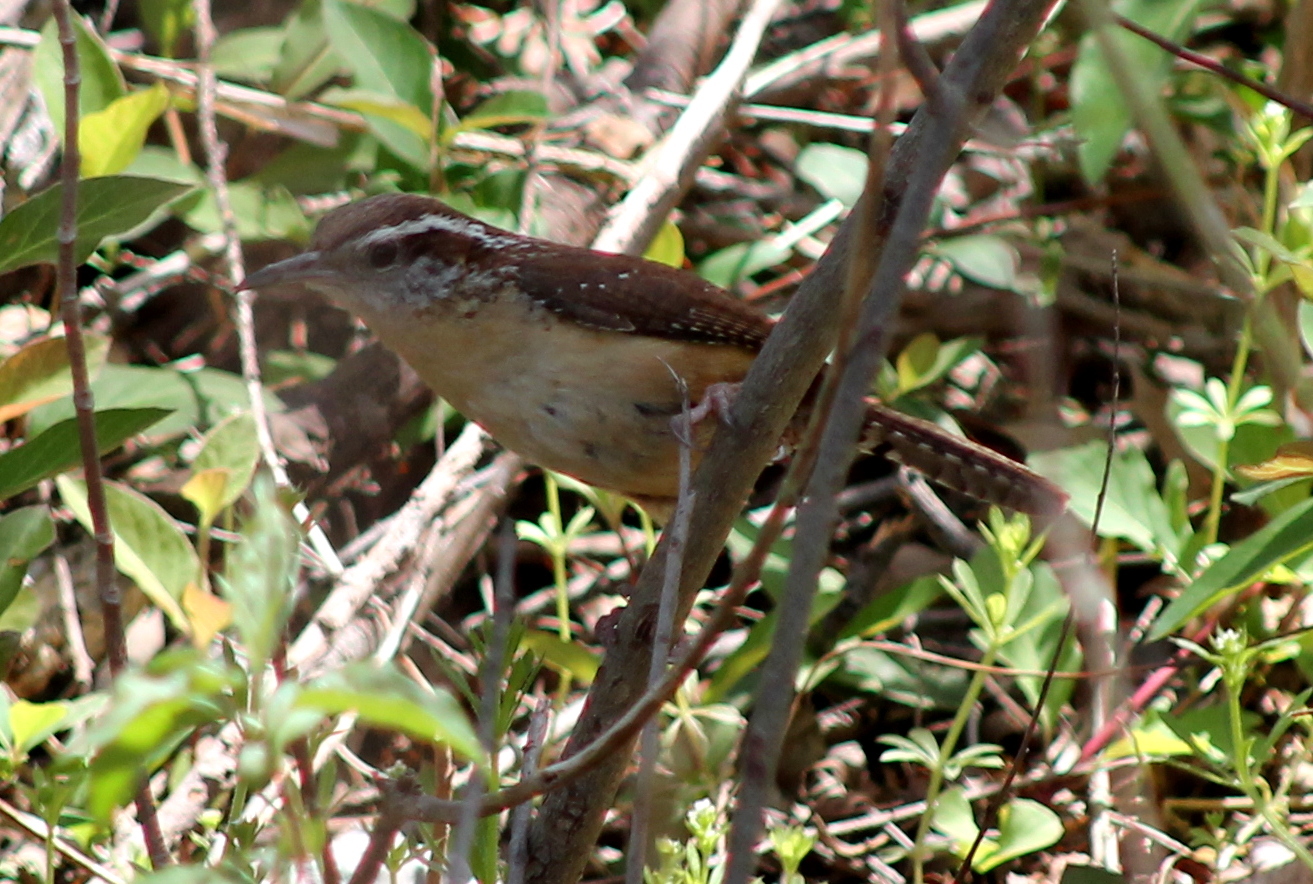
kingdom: Animalia
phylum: Chordata
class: Aves
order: Passeriformes
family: Troglodytidae
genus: Thryothorus
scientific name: Thryothorus ludovicianus
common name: Carolina wren
